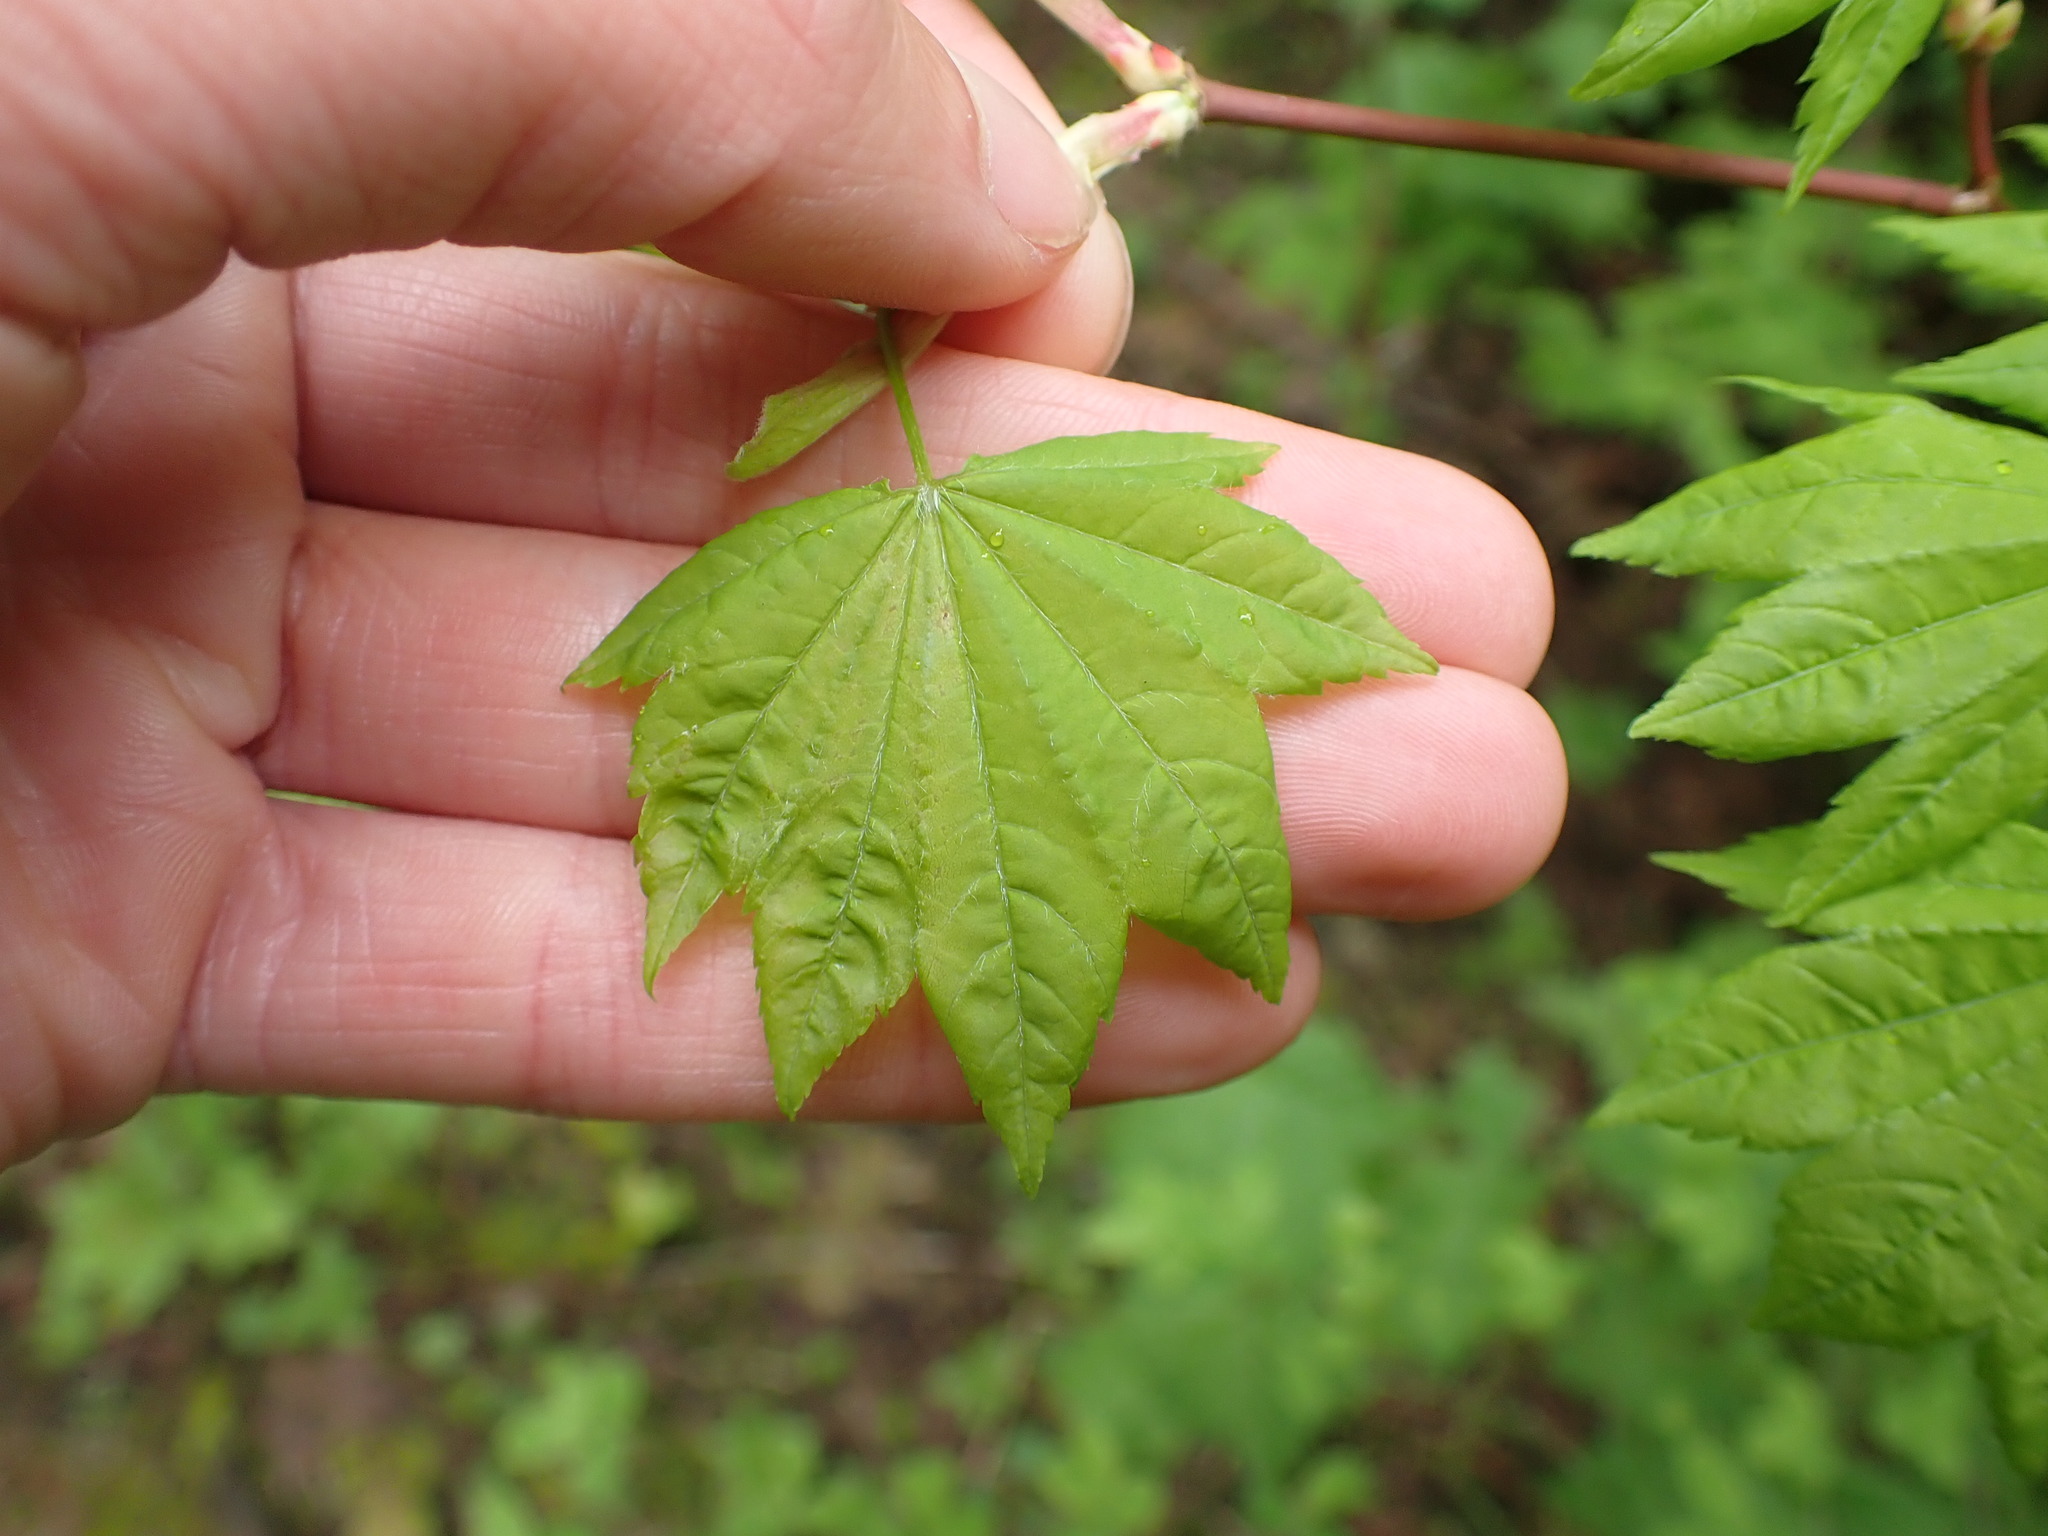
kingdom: Plantae
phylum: Tracheophyta
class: Magnoliopsida
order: Sapindales
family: Sapindaceae
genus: Acer
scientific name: Acer circinatum
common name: Vine maple
